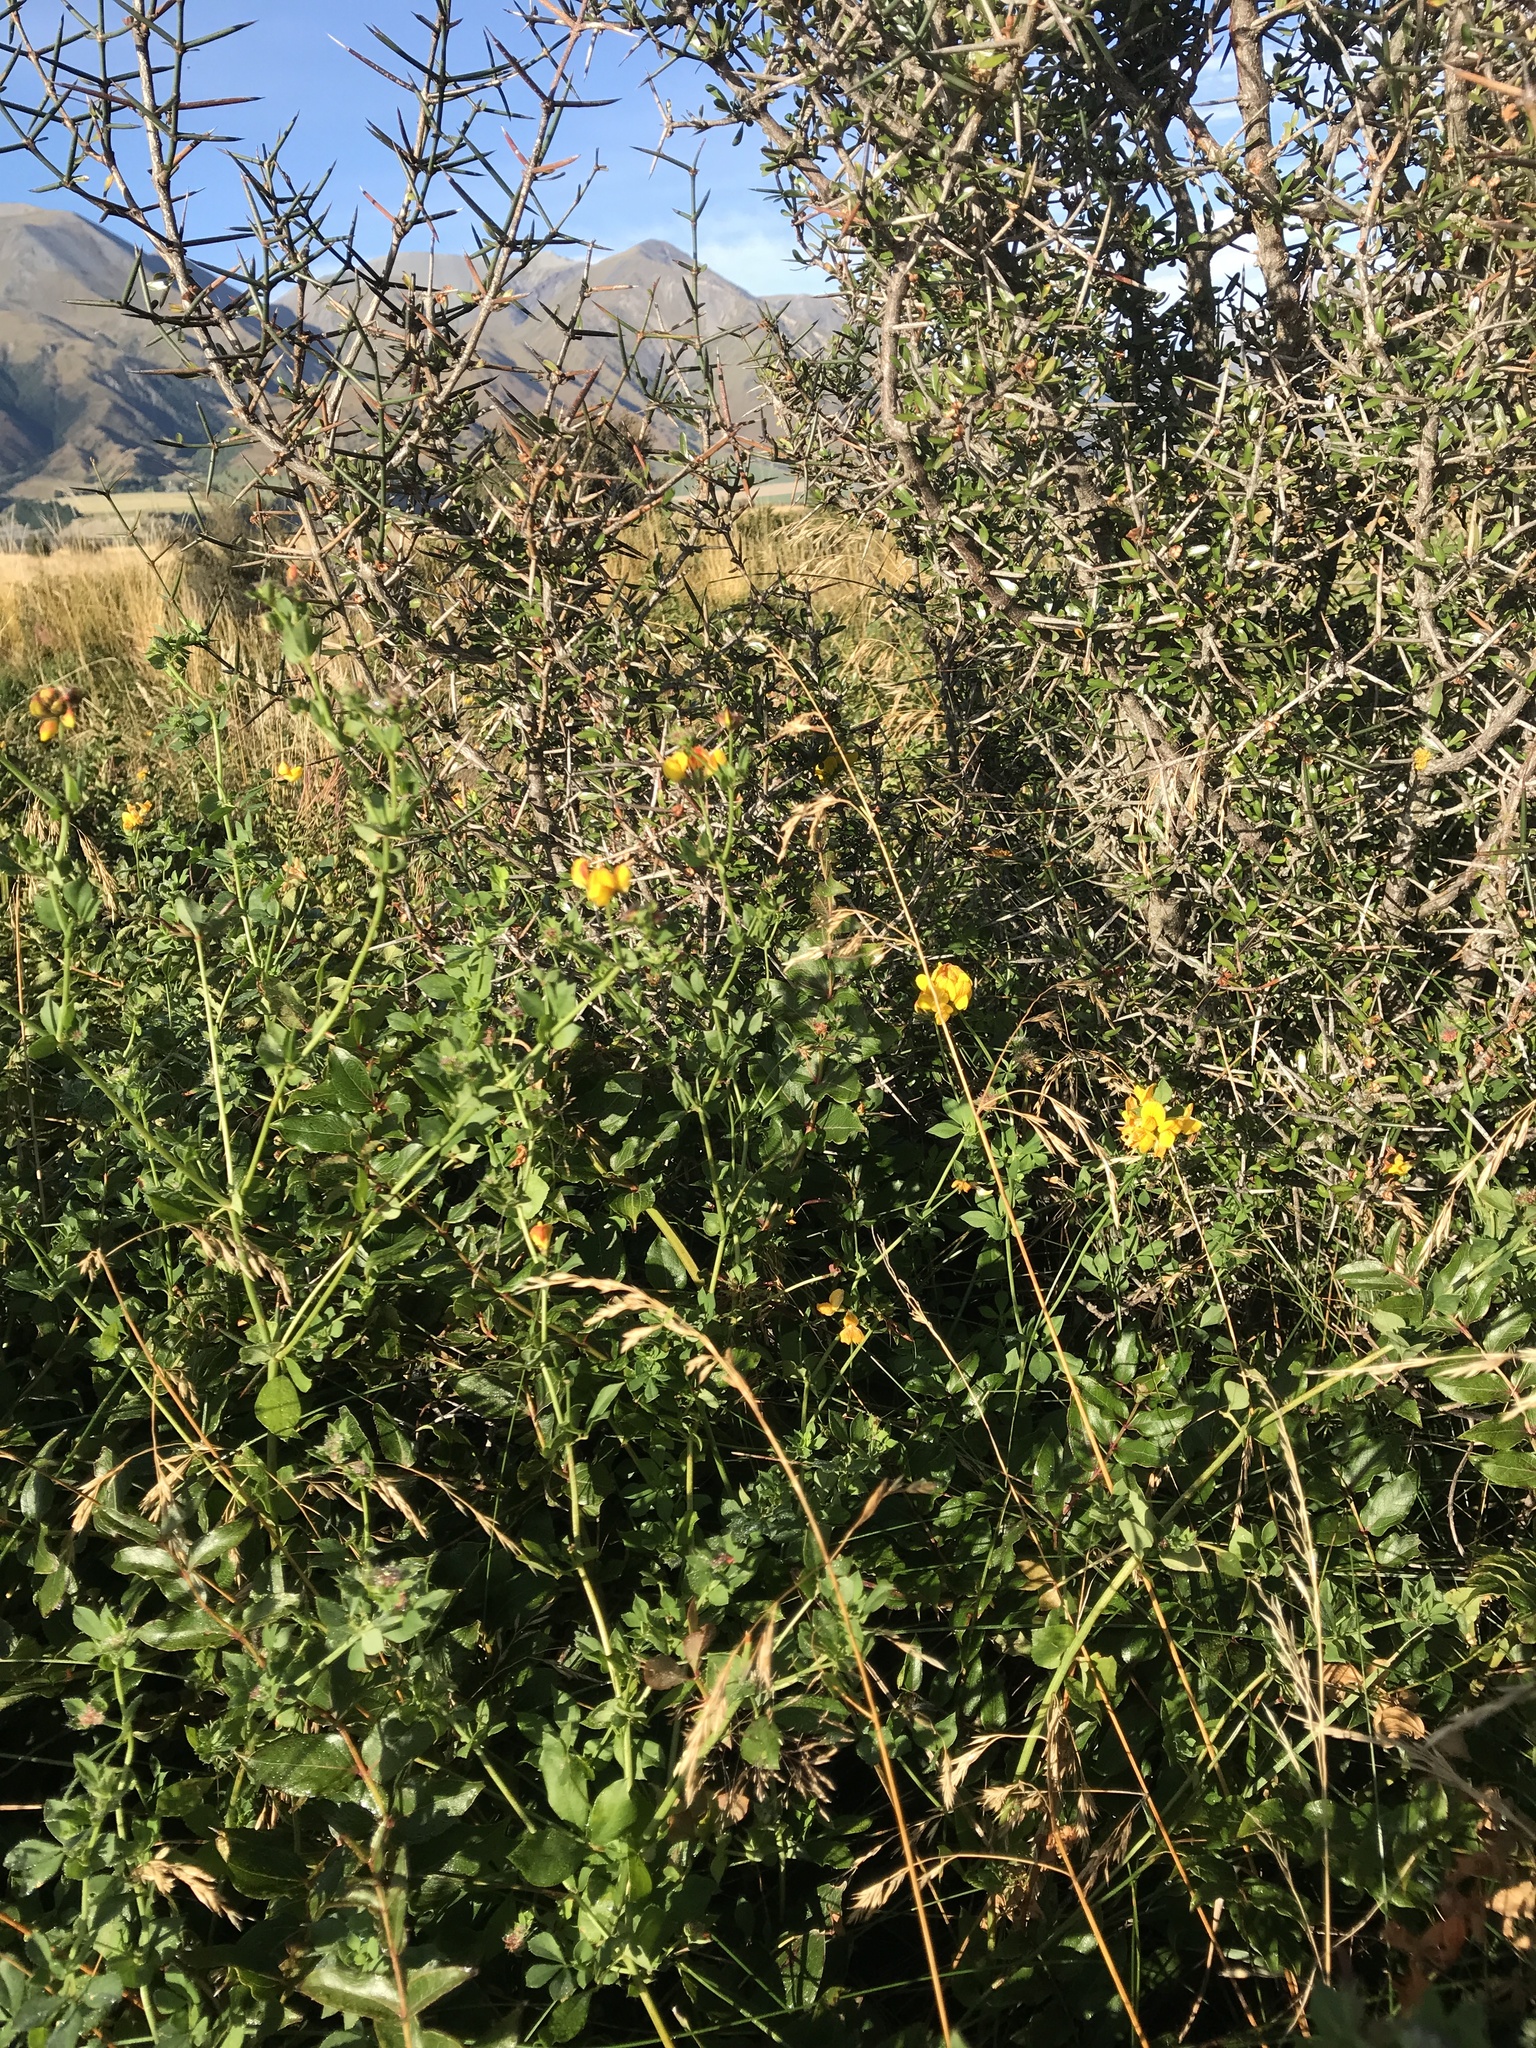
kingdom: Plantae
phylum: Tracheophyta
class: Magnoliopsida
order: Fabales
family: Fabaceae
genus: Lotus
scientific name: Lotus pedunculatus
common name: Greater birdsfoot-trefoil
